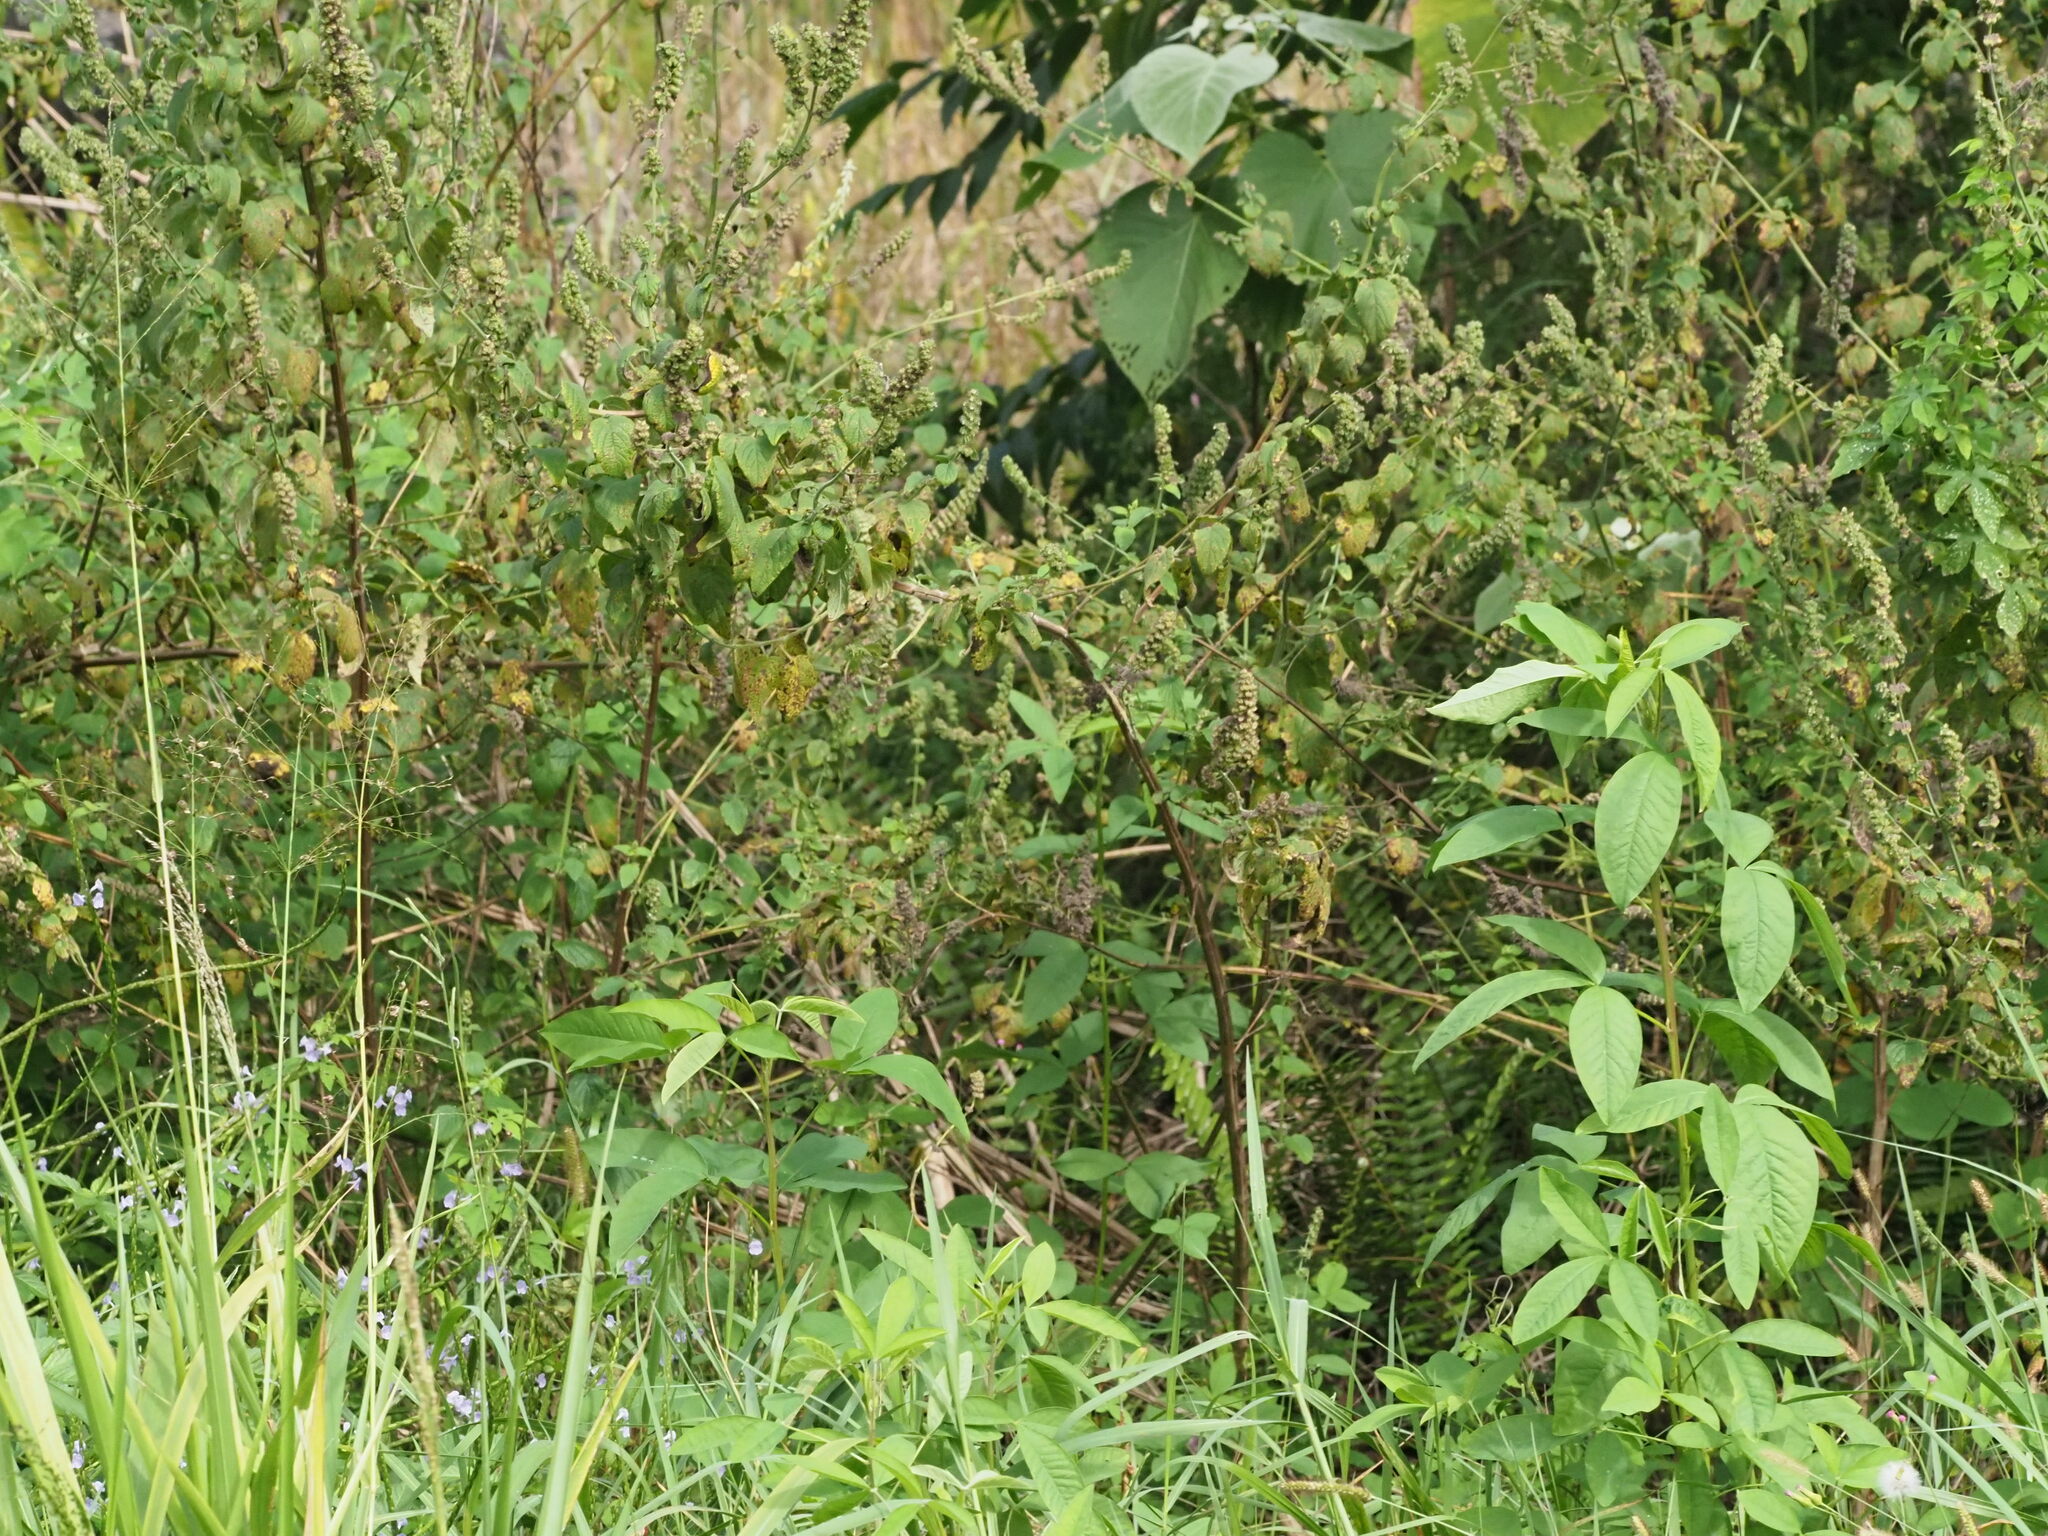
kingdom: Plantae
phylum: Tracheophyta
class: Magnoliopsida
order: Lamiales
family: Lamiaceae
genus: Mesosphaerum
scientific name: Mesosphaerum pectinatum
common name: Comb hyptis
